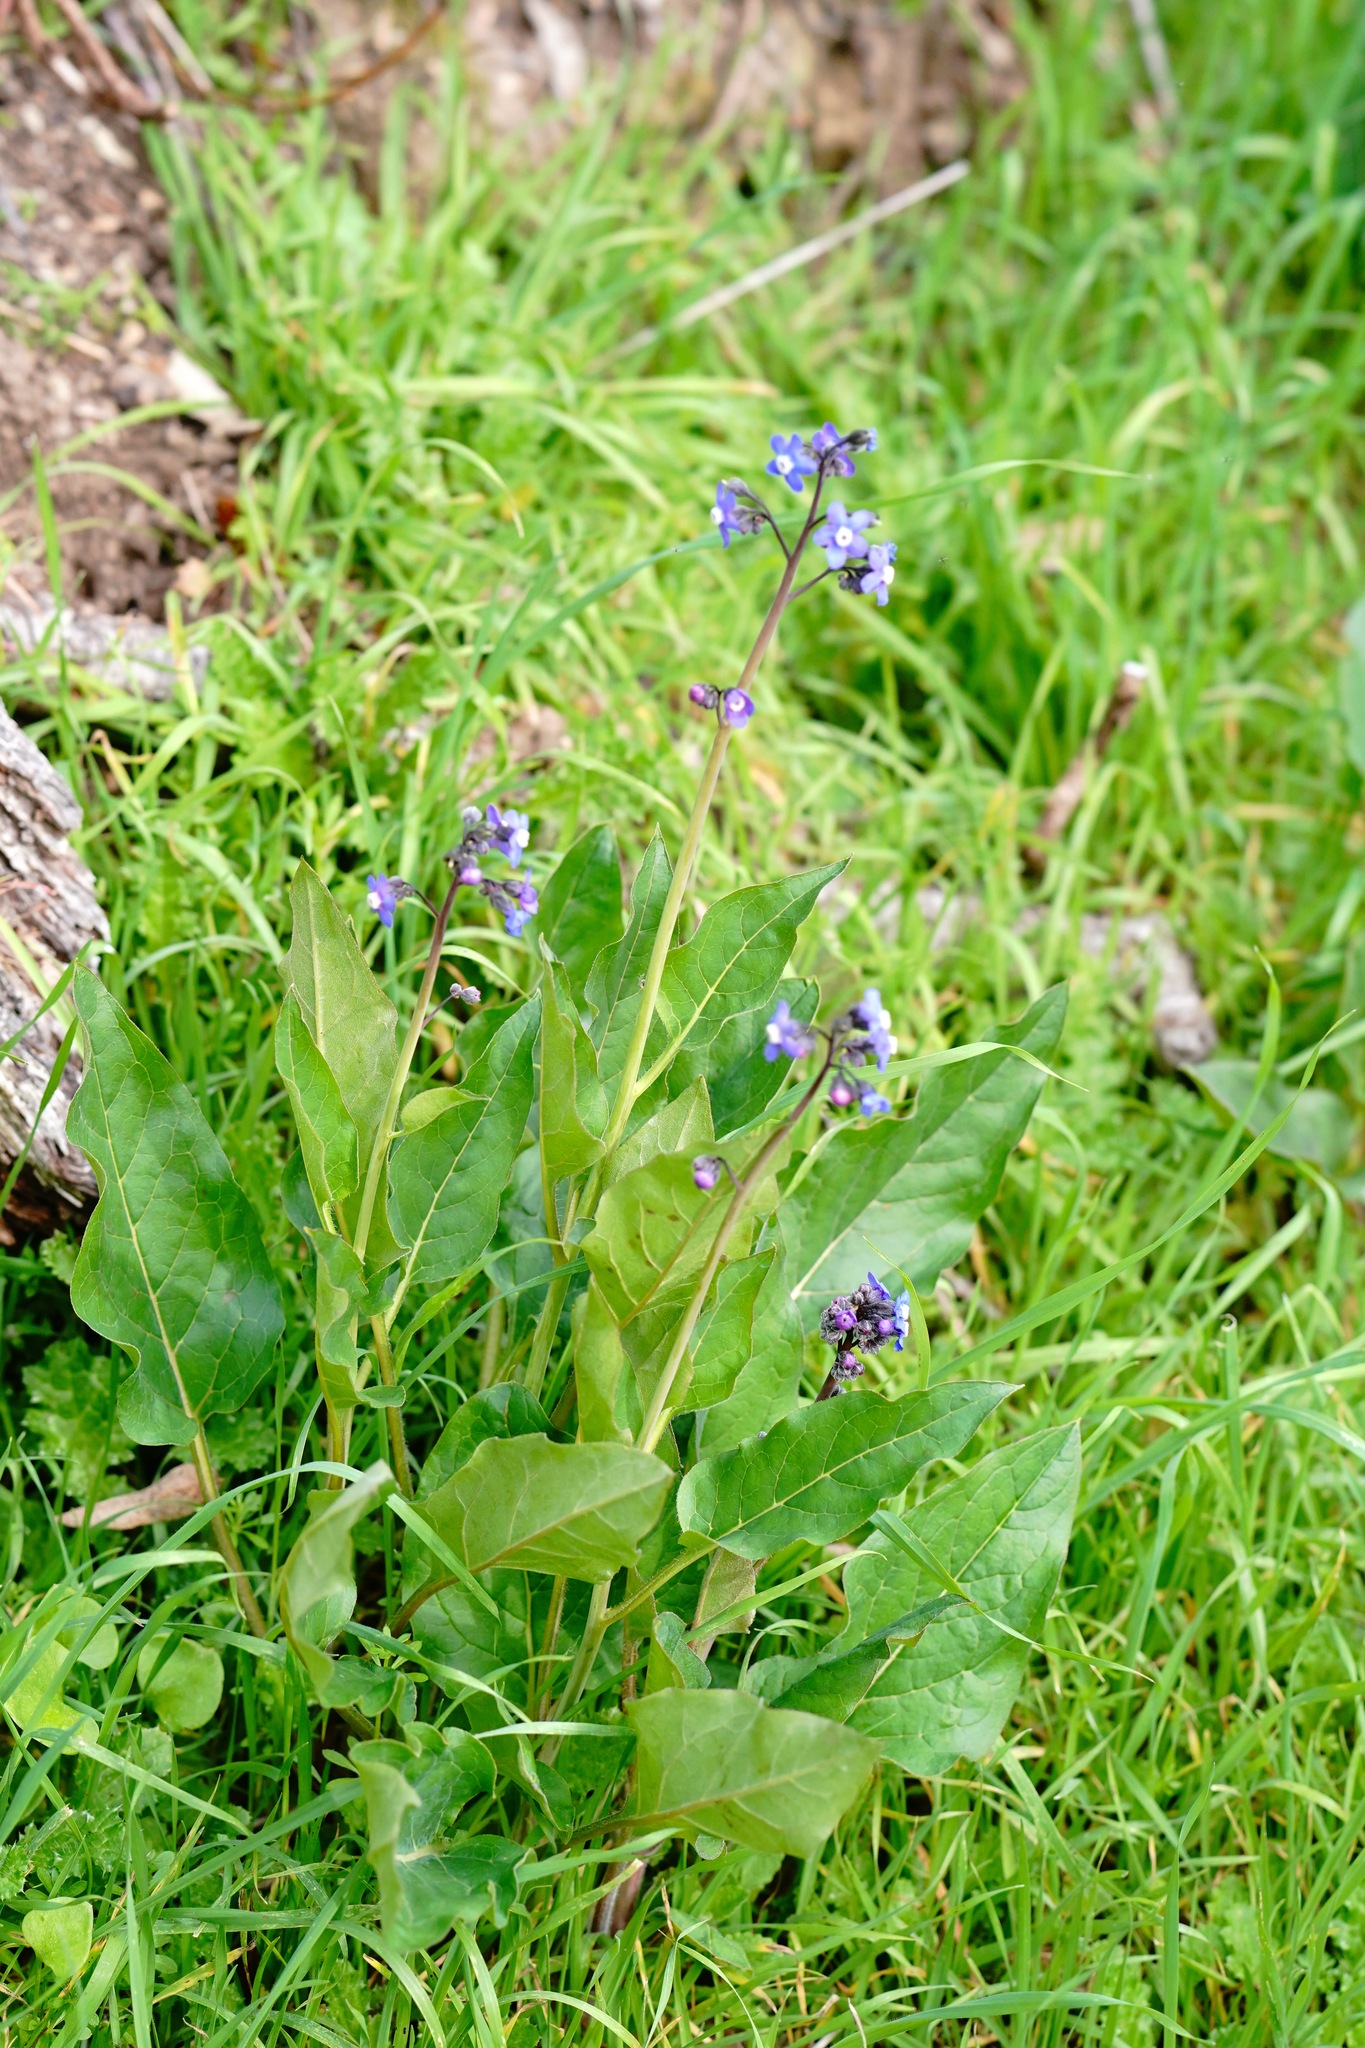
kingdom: Plantae
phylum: Tracheophyta
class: Magnoliopsida
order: Boraginales
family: Boraginaceae
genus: Adelinia
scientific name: Adelinia grande
